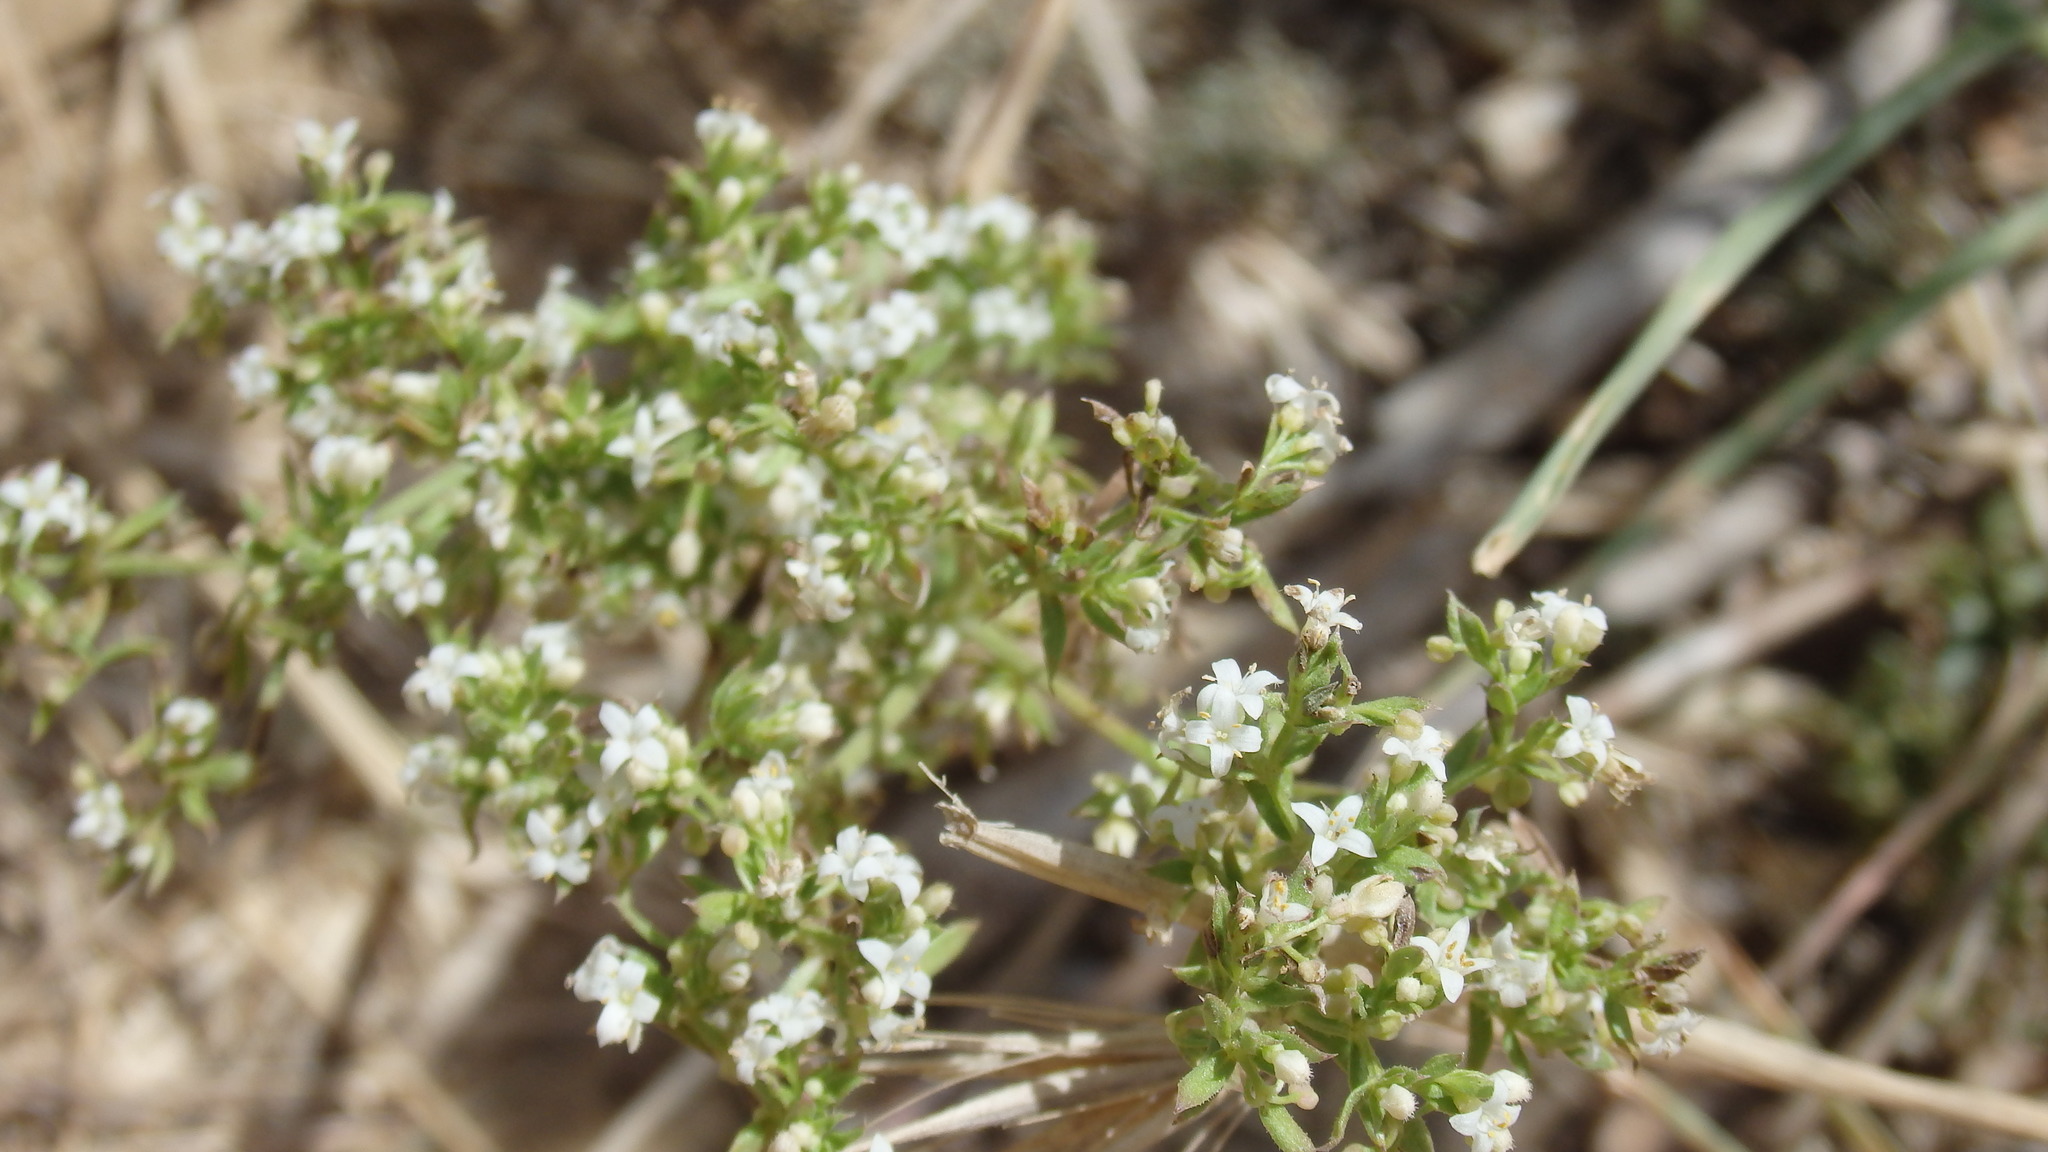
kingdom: Plantae
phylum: Tracheophyta
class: Magnoliopsida
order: Gentianales
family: Rubiaceae
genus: Galium
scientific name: Galium humifusum
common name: Spreading bedstraw
